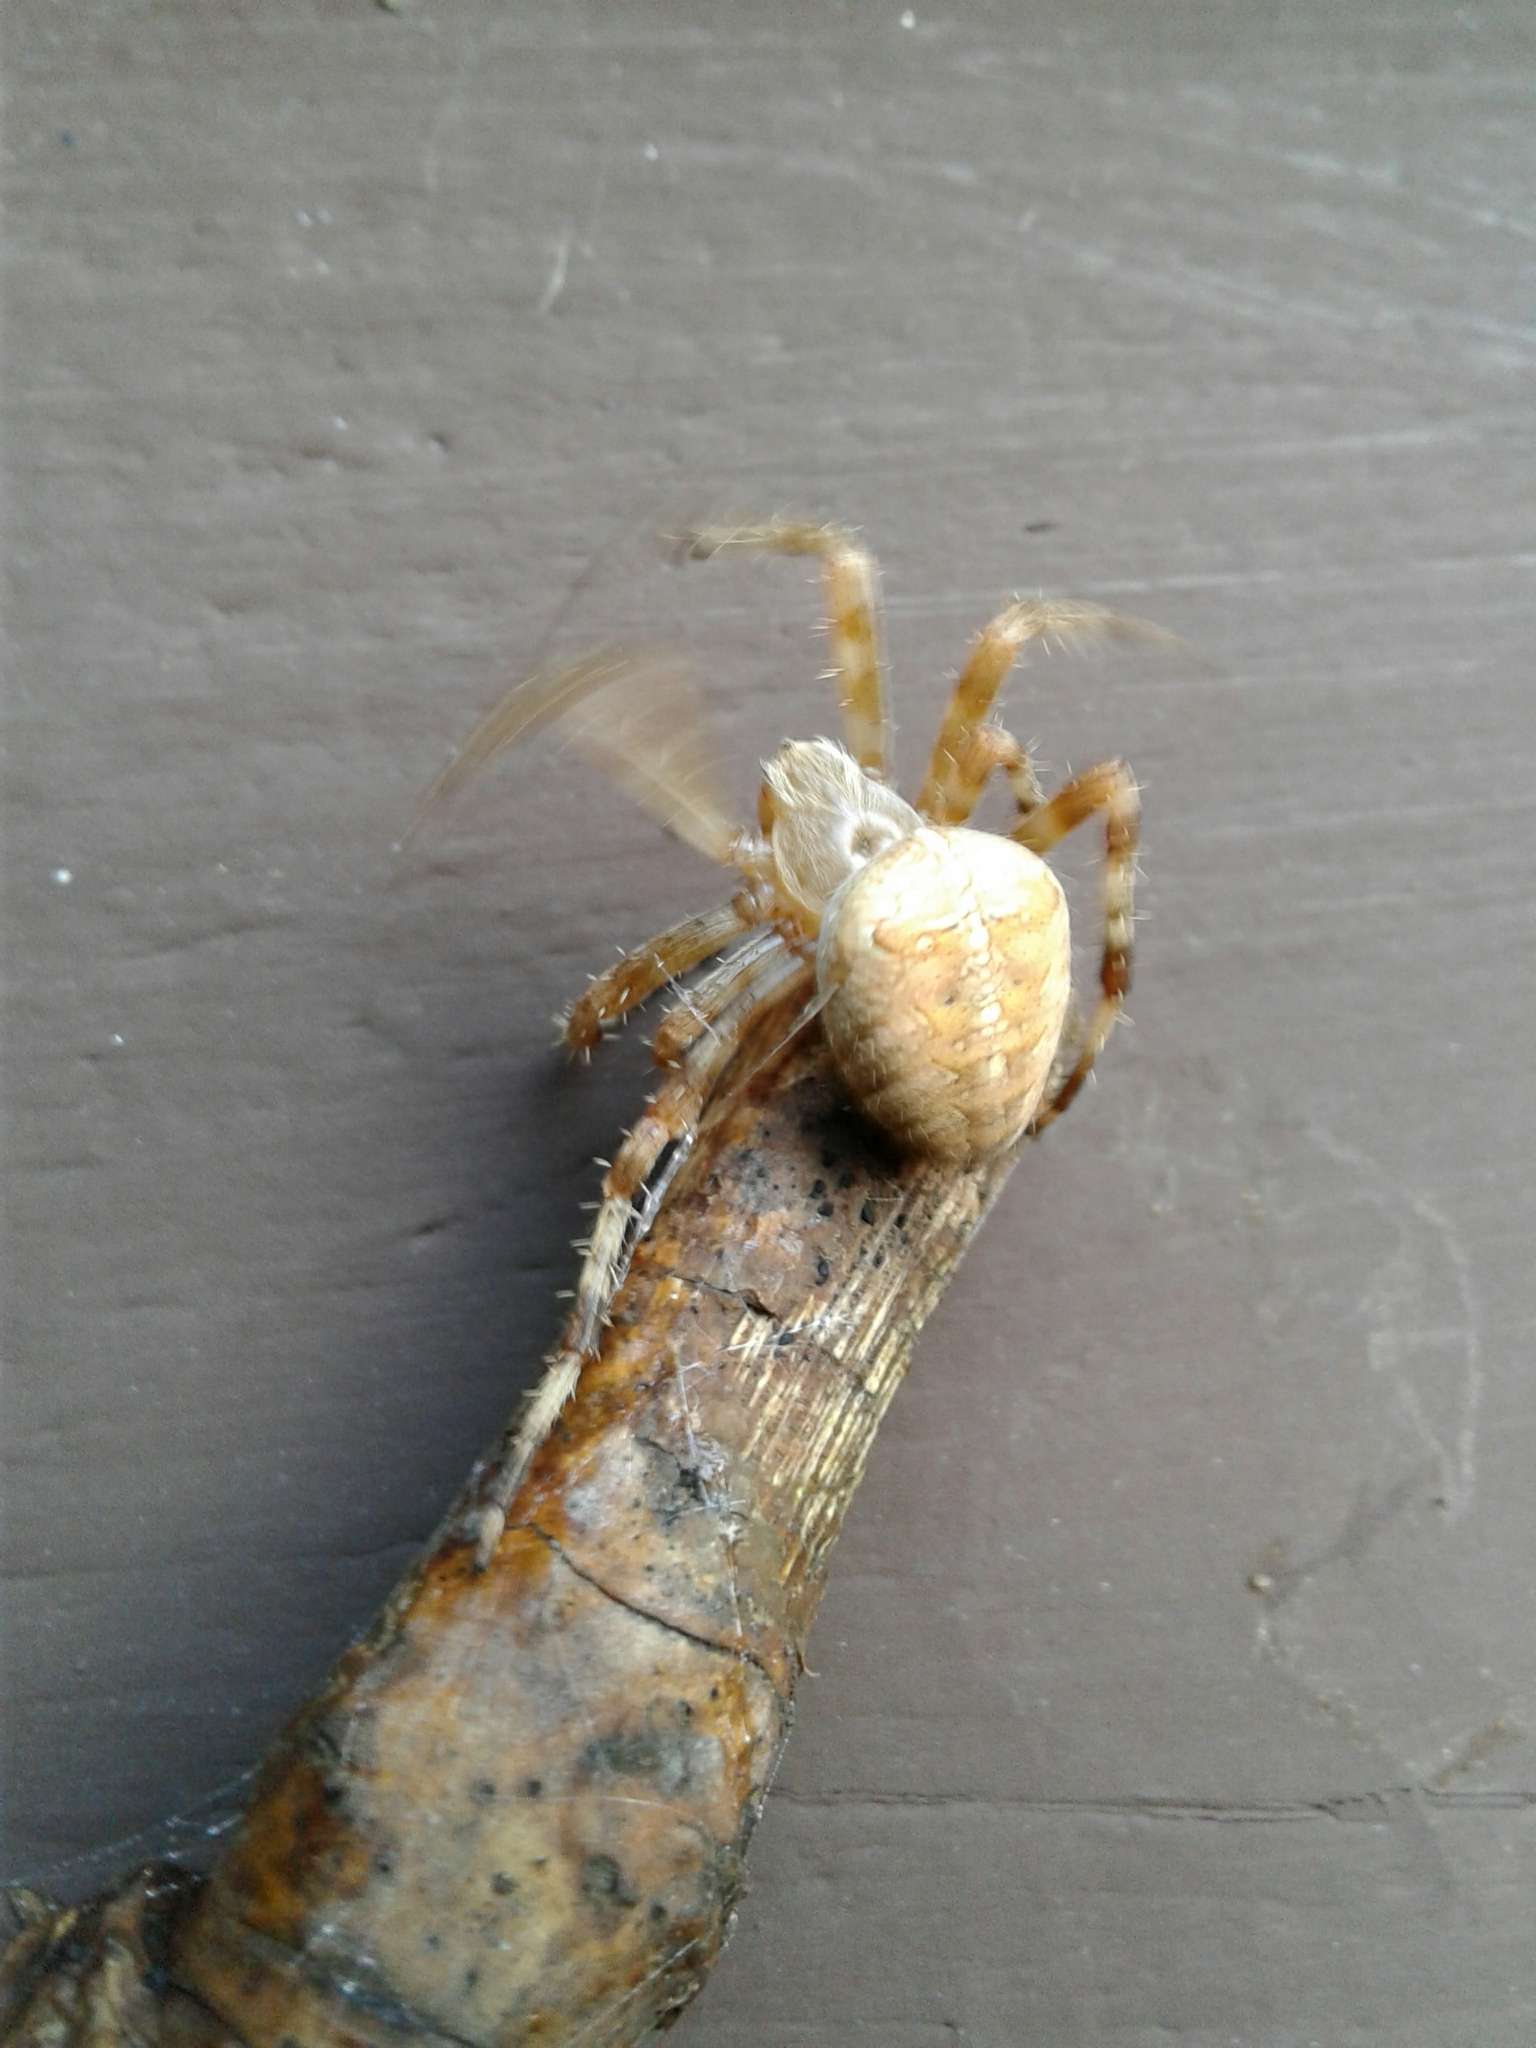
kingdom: Animalia
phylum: Arthropoda
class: Arachnida
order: Araneae
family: Araneidae
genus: Araneus
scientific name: Araneus diadematus
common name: Cross orbweaver
